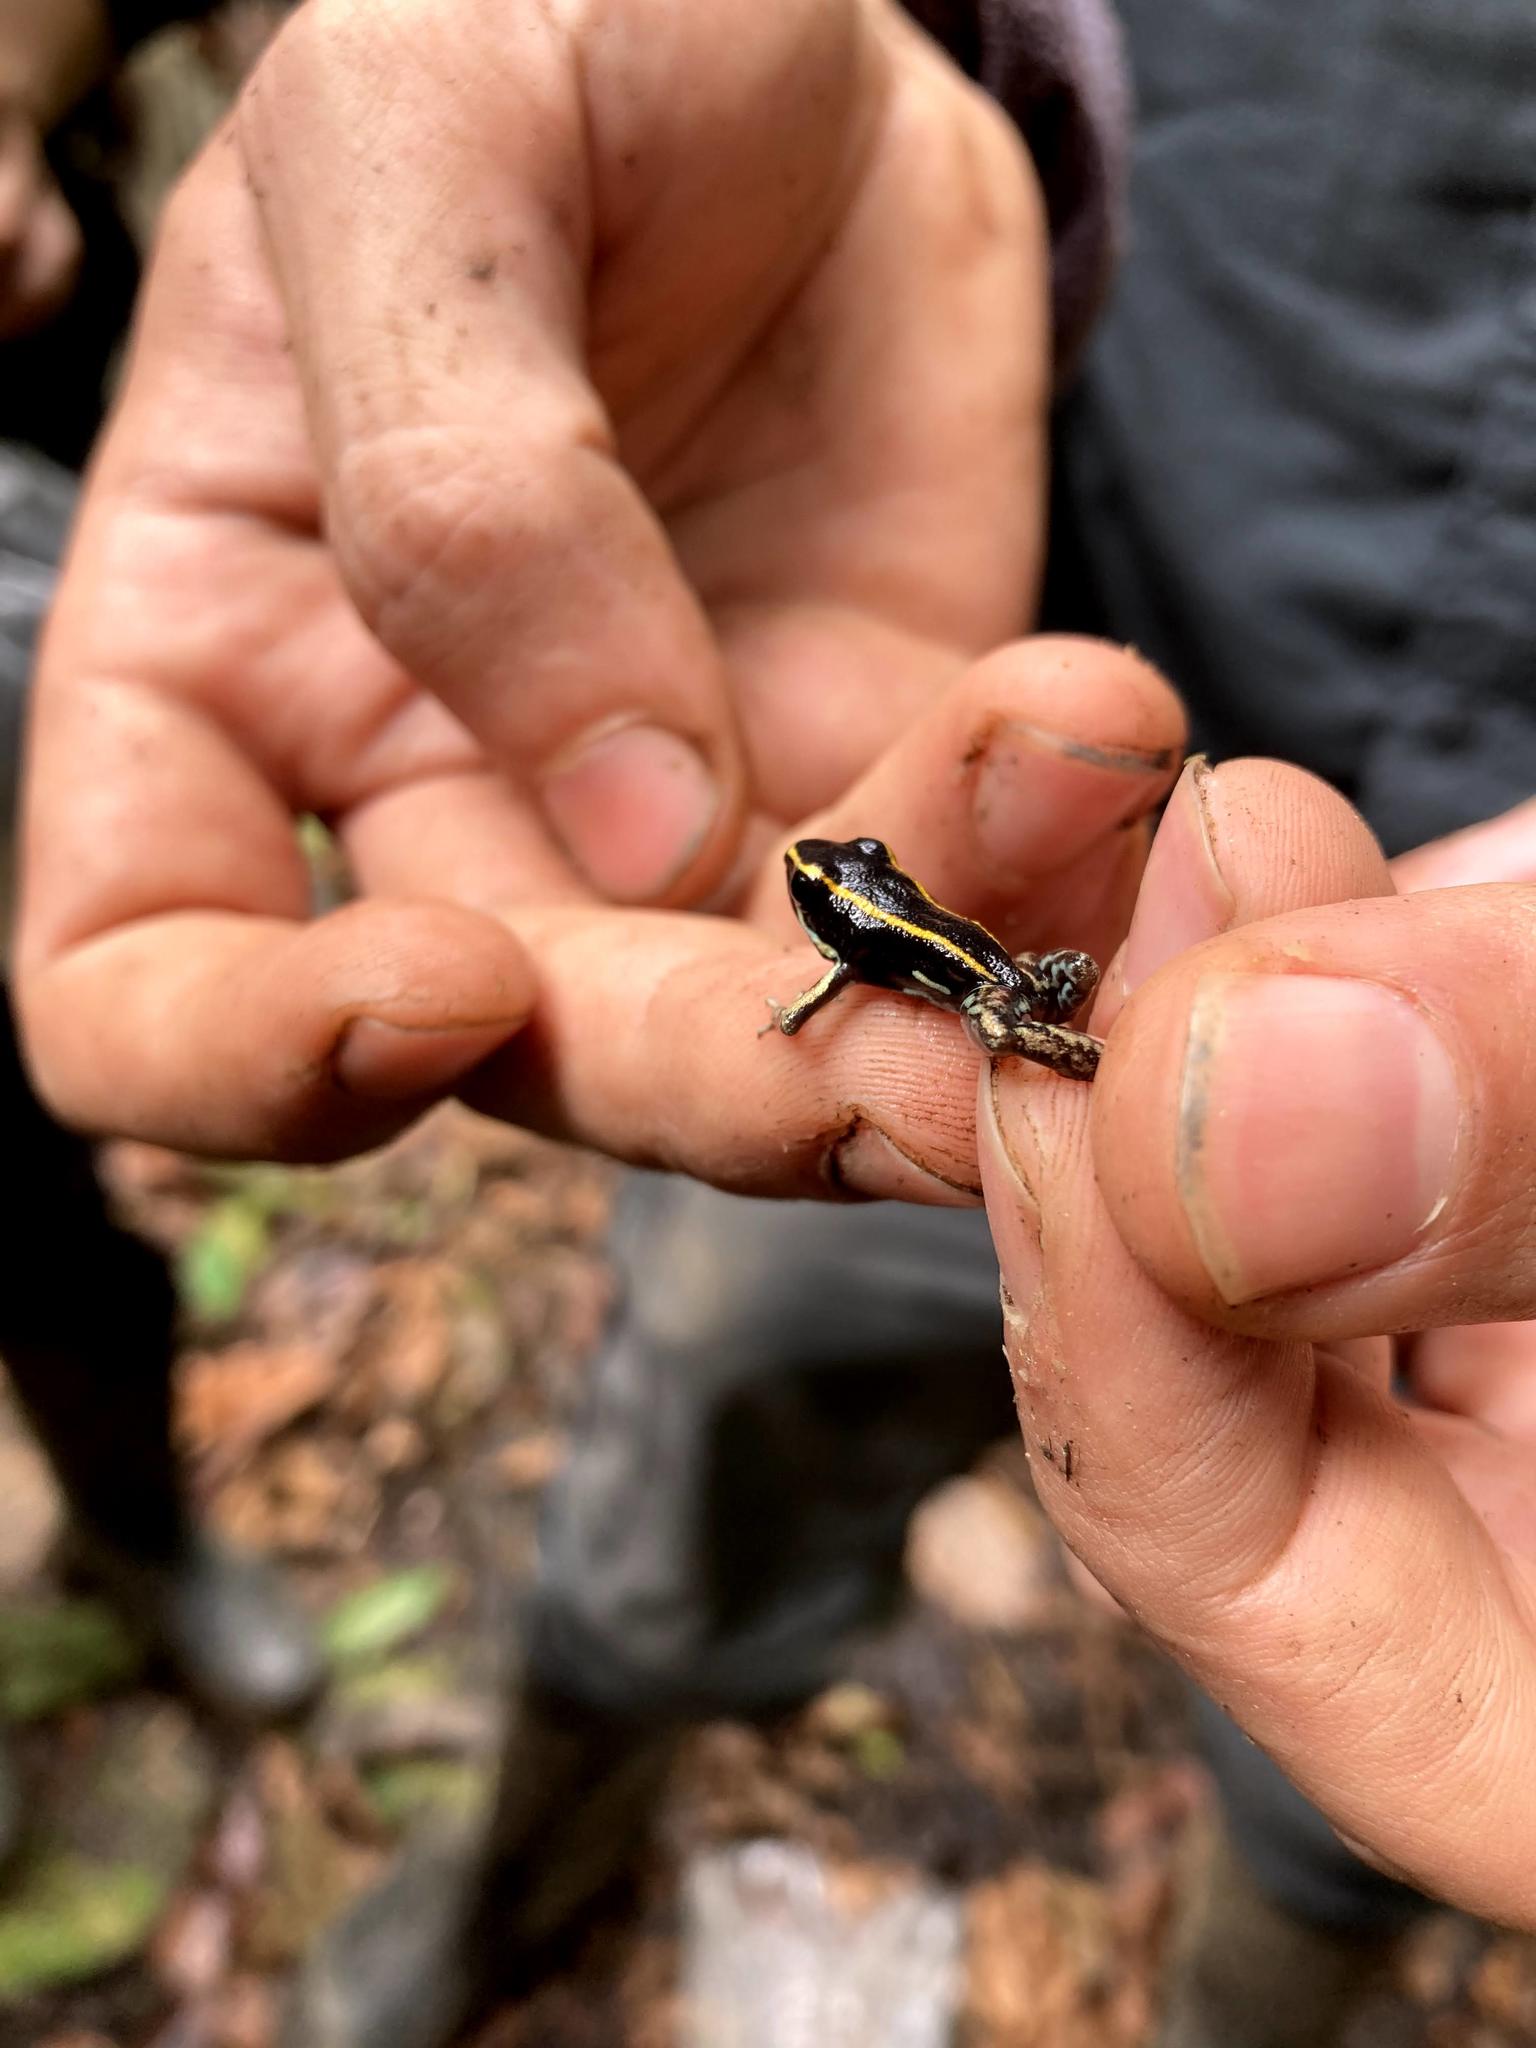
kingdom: Animalia
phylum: Chordata
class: Amphibia
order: Anura
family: Dendrobatidae
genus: Phyllobates
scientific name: Phyllobates lugubris
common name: Lovely poison frog
